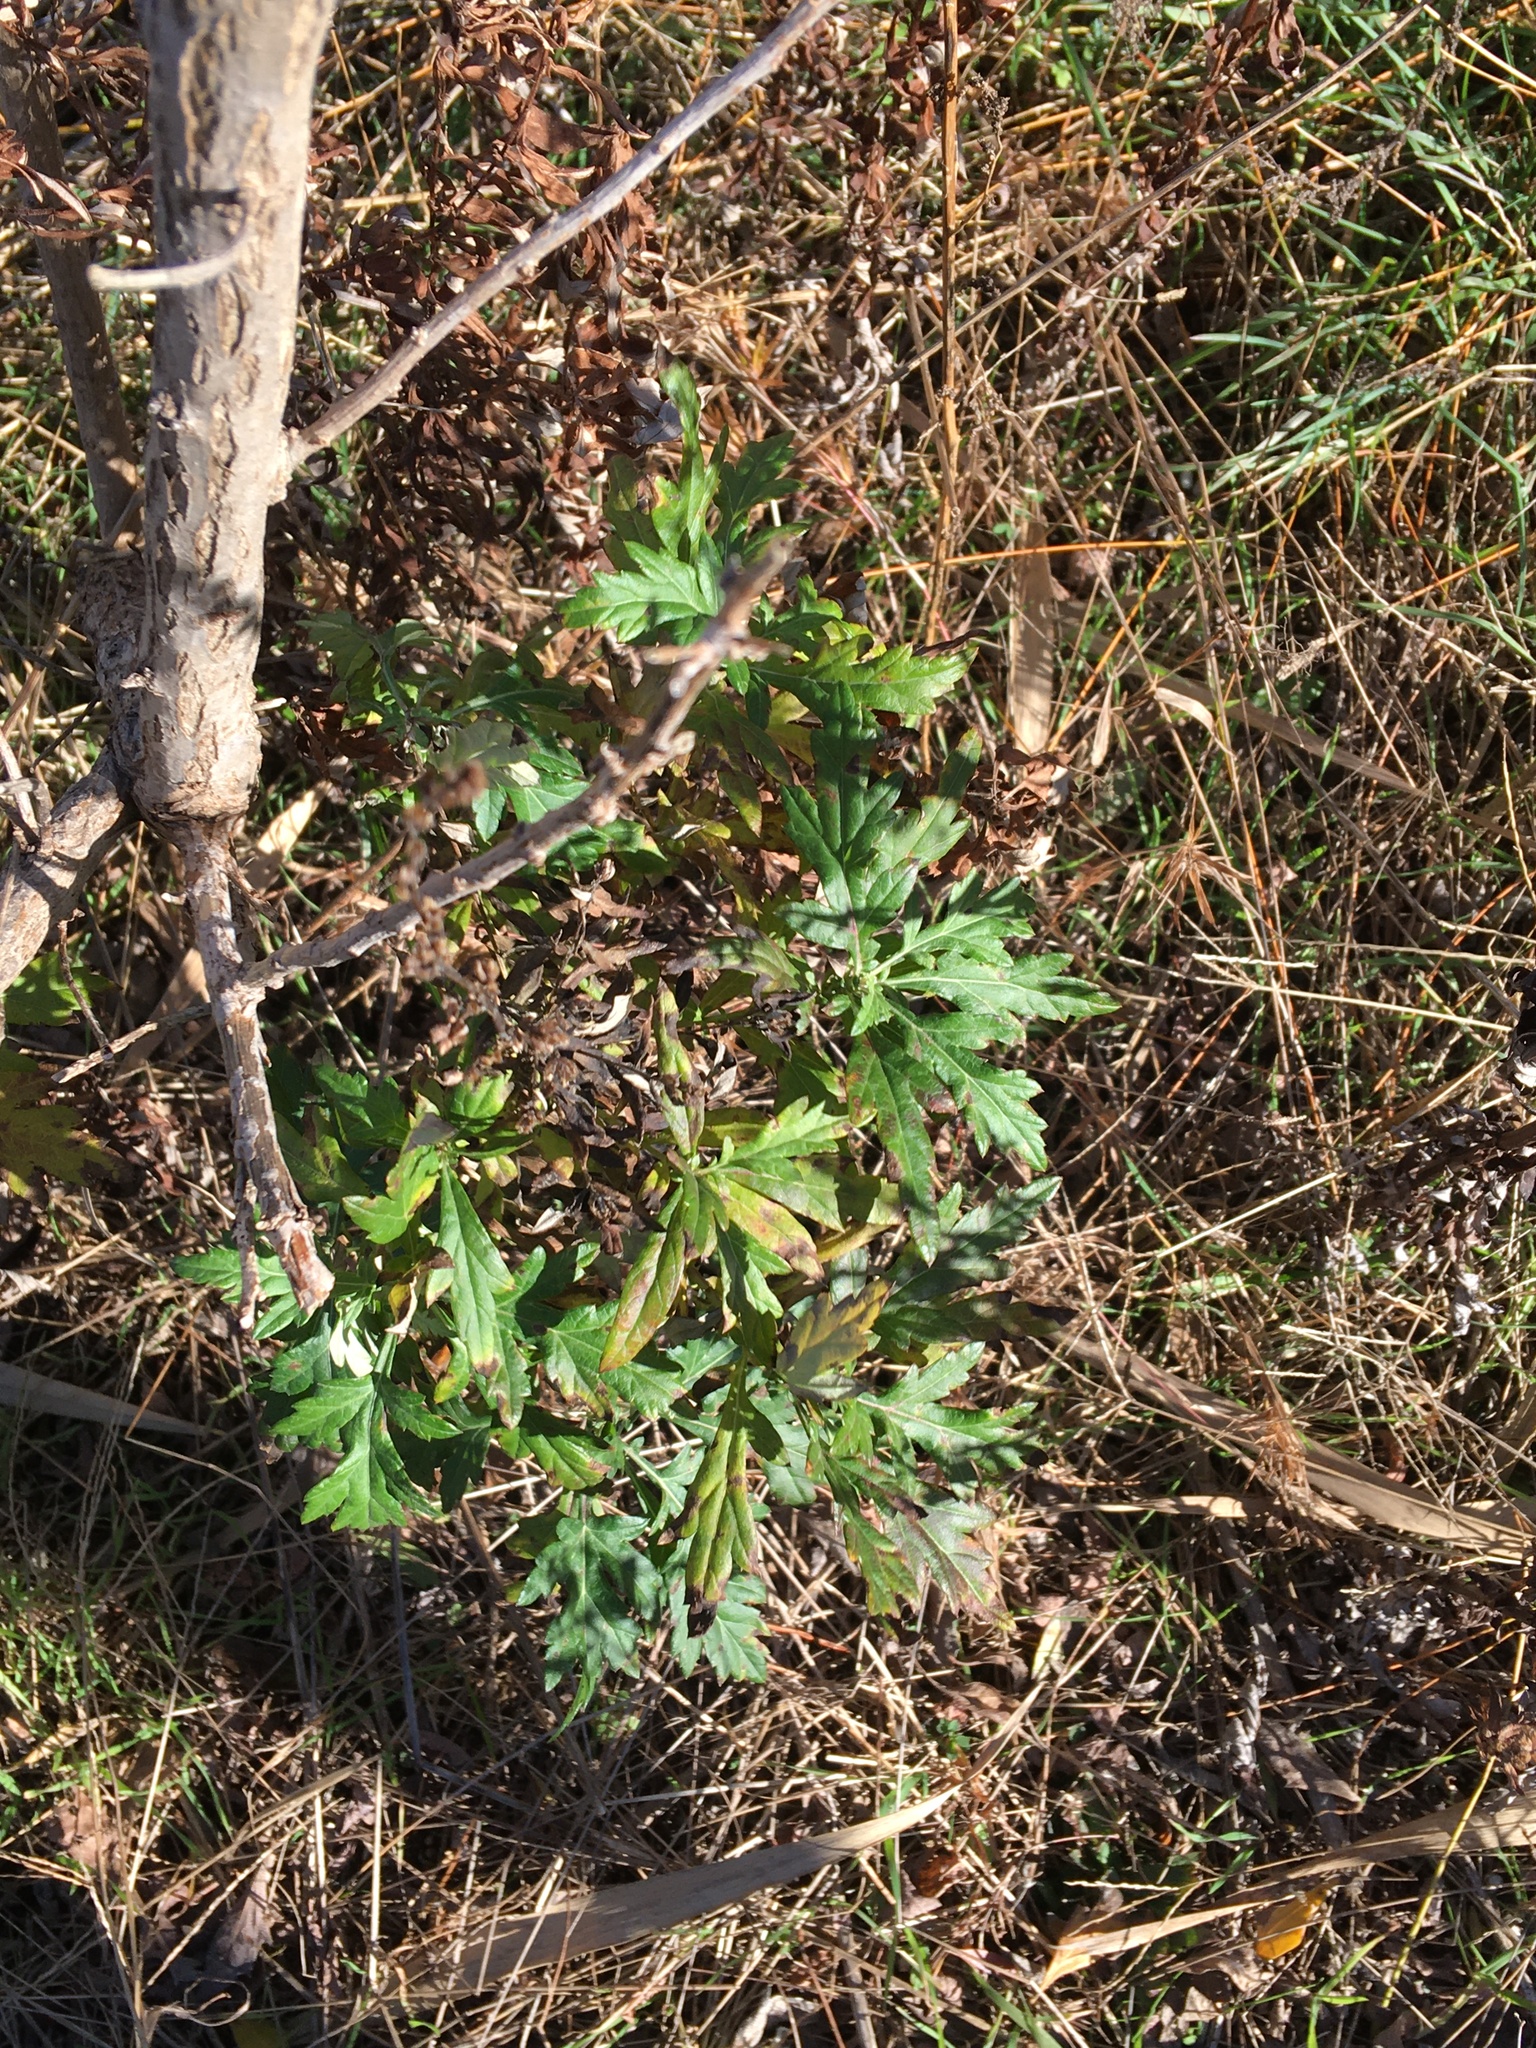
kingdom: Plantae
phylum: Tracheophyta
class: Magnoliopsida
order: Asterales
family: Asteraceae
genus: Artemisia
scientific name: Artemisia vulgaris
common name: Mugwort
